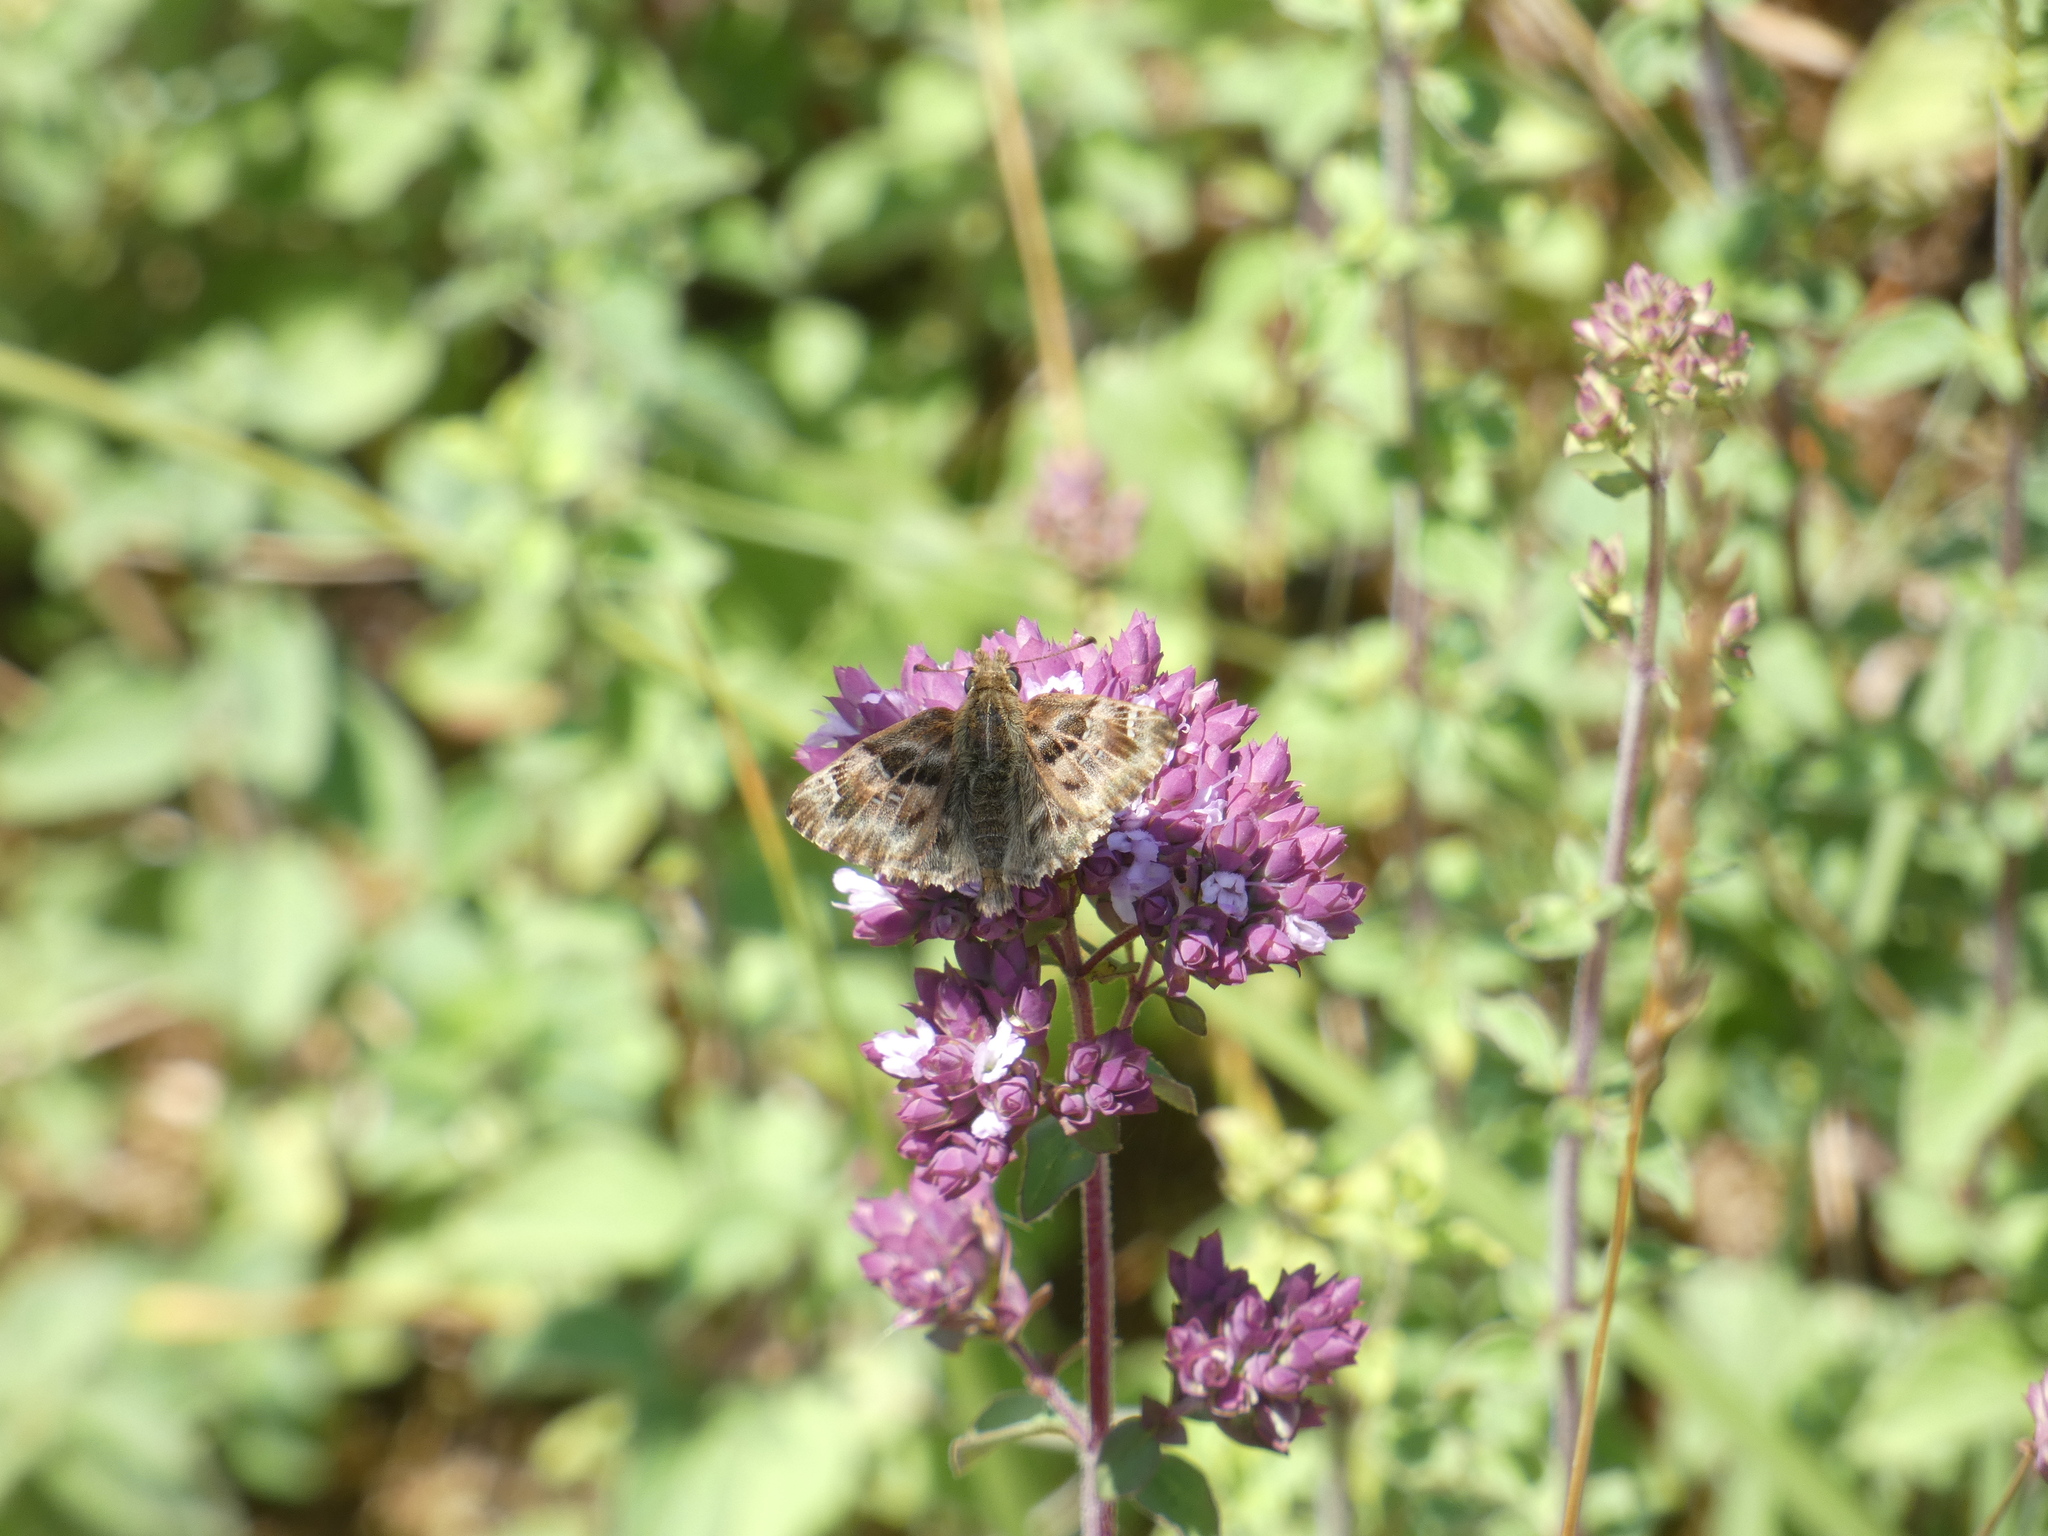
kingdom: Animalia
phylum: Arthropoda
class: Insecta
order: Lepidoptera
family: Hesperiidae
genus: Carcharodus
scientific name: Carcharodus alceae
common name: Mallow skipper
